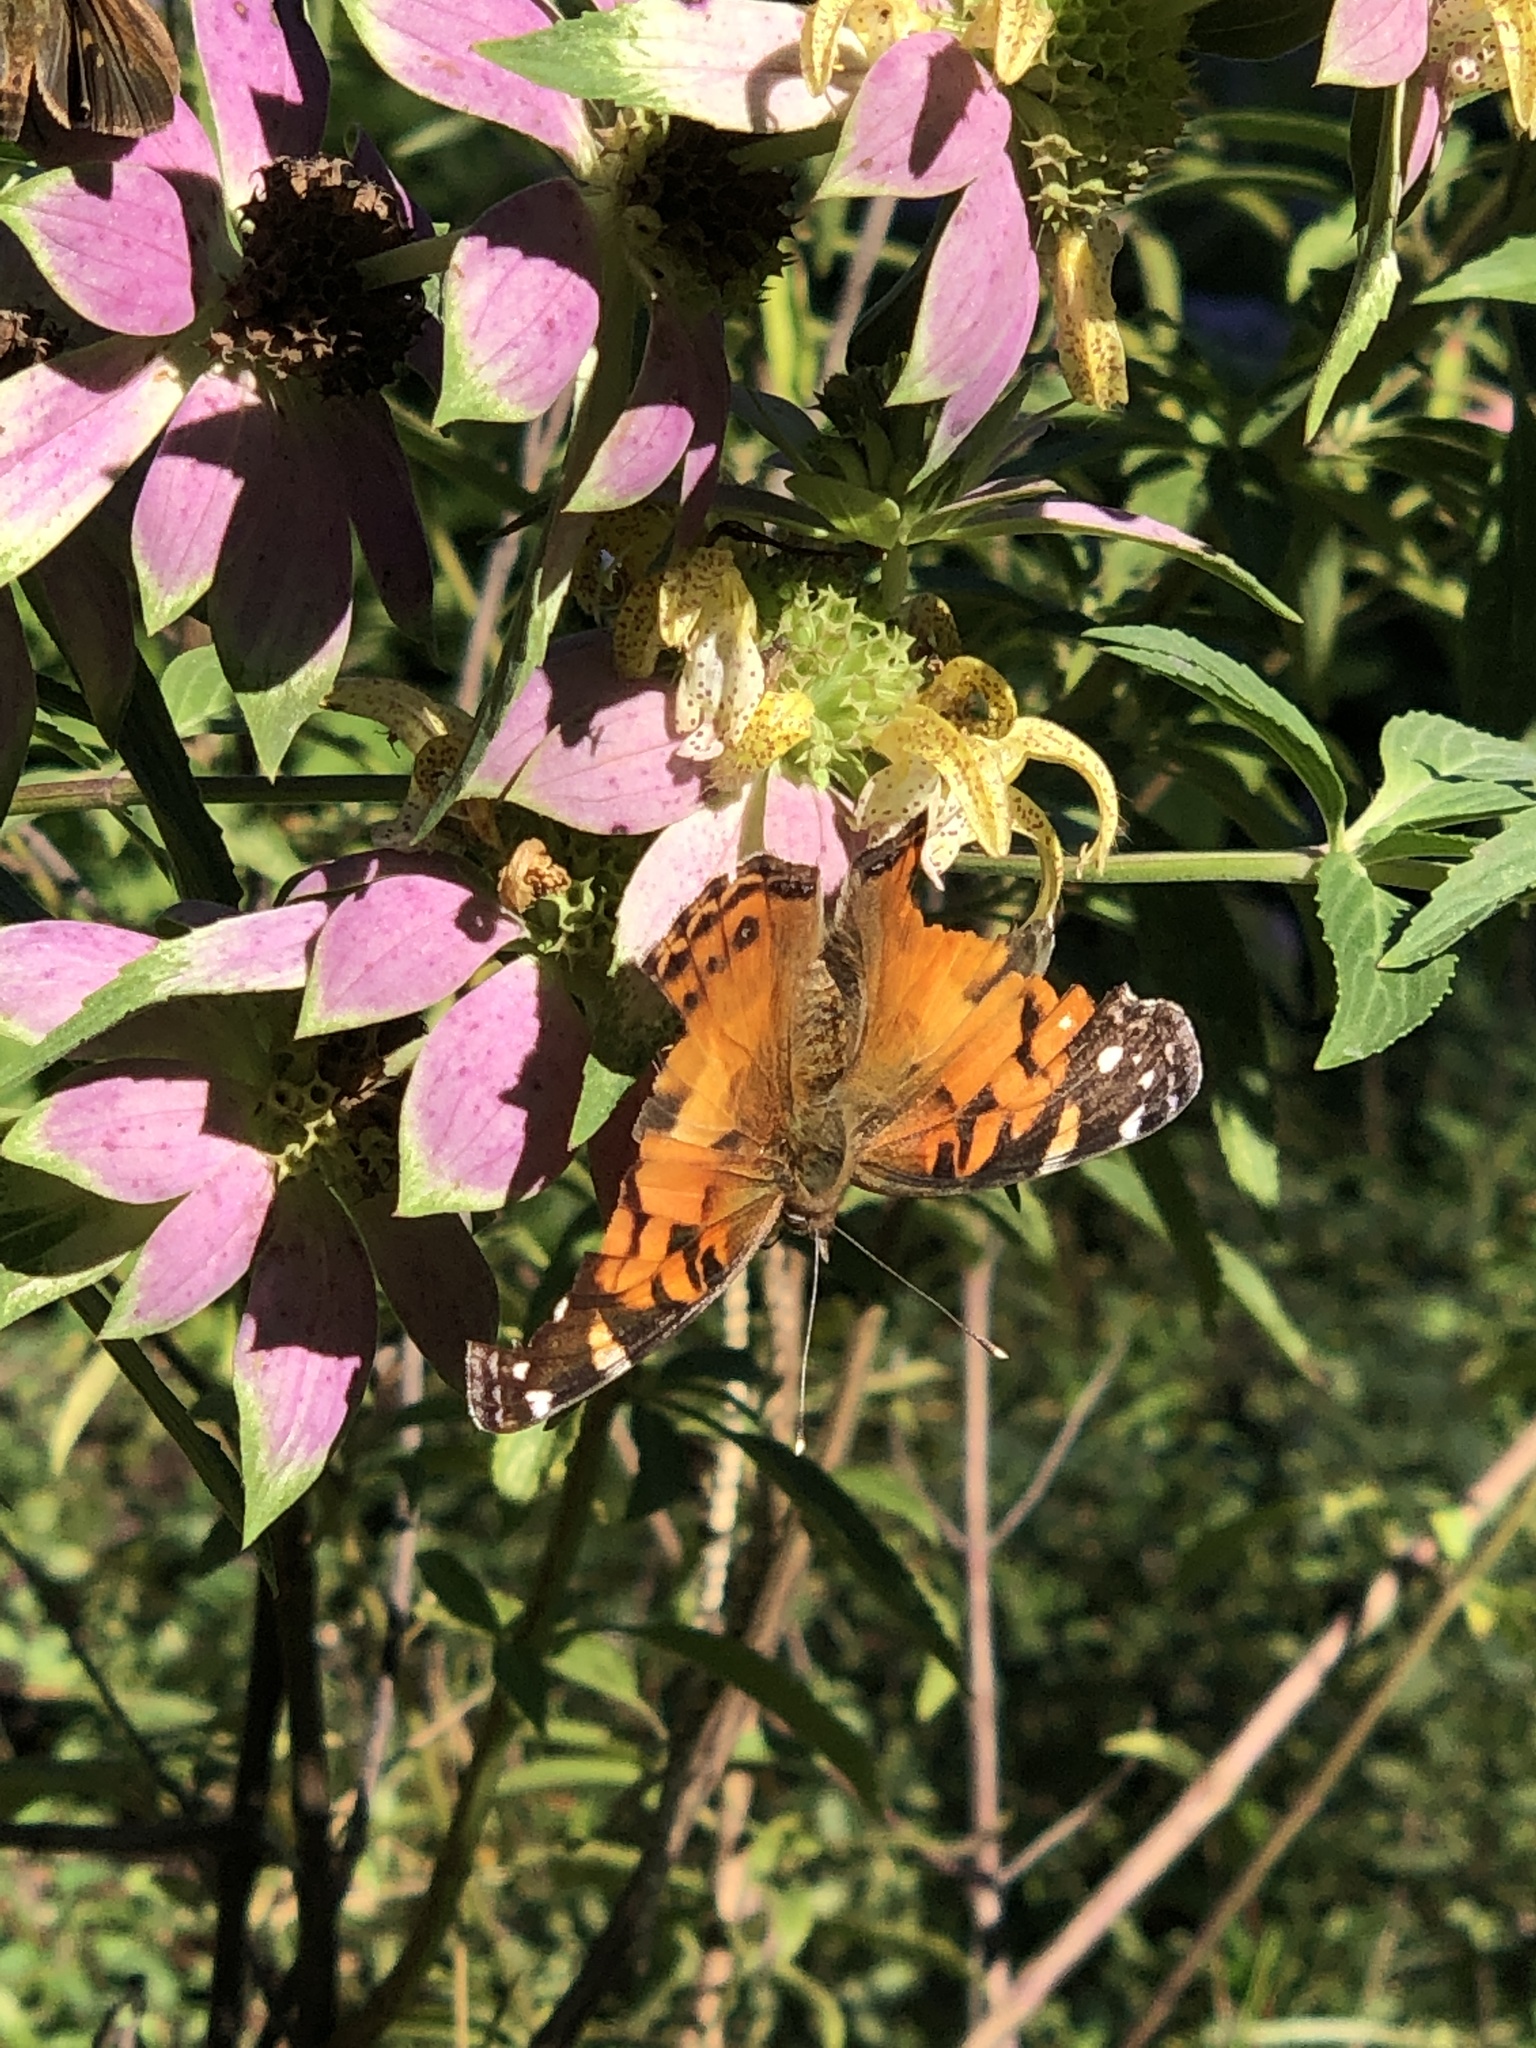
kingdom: Animalia
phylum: Arthropoda
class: Insecta
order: Lepidoptera
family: Nymphalidae
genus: Vanessa
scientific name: Vanessa virginiensis
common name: American lady
